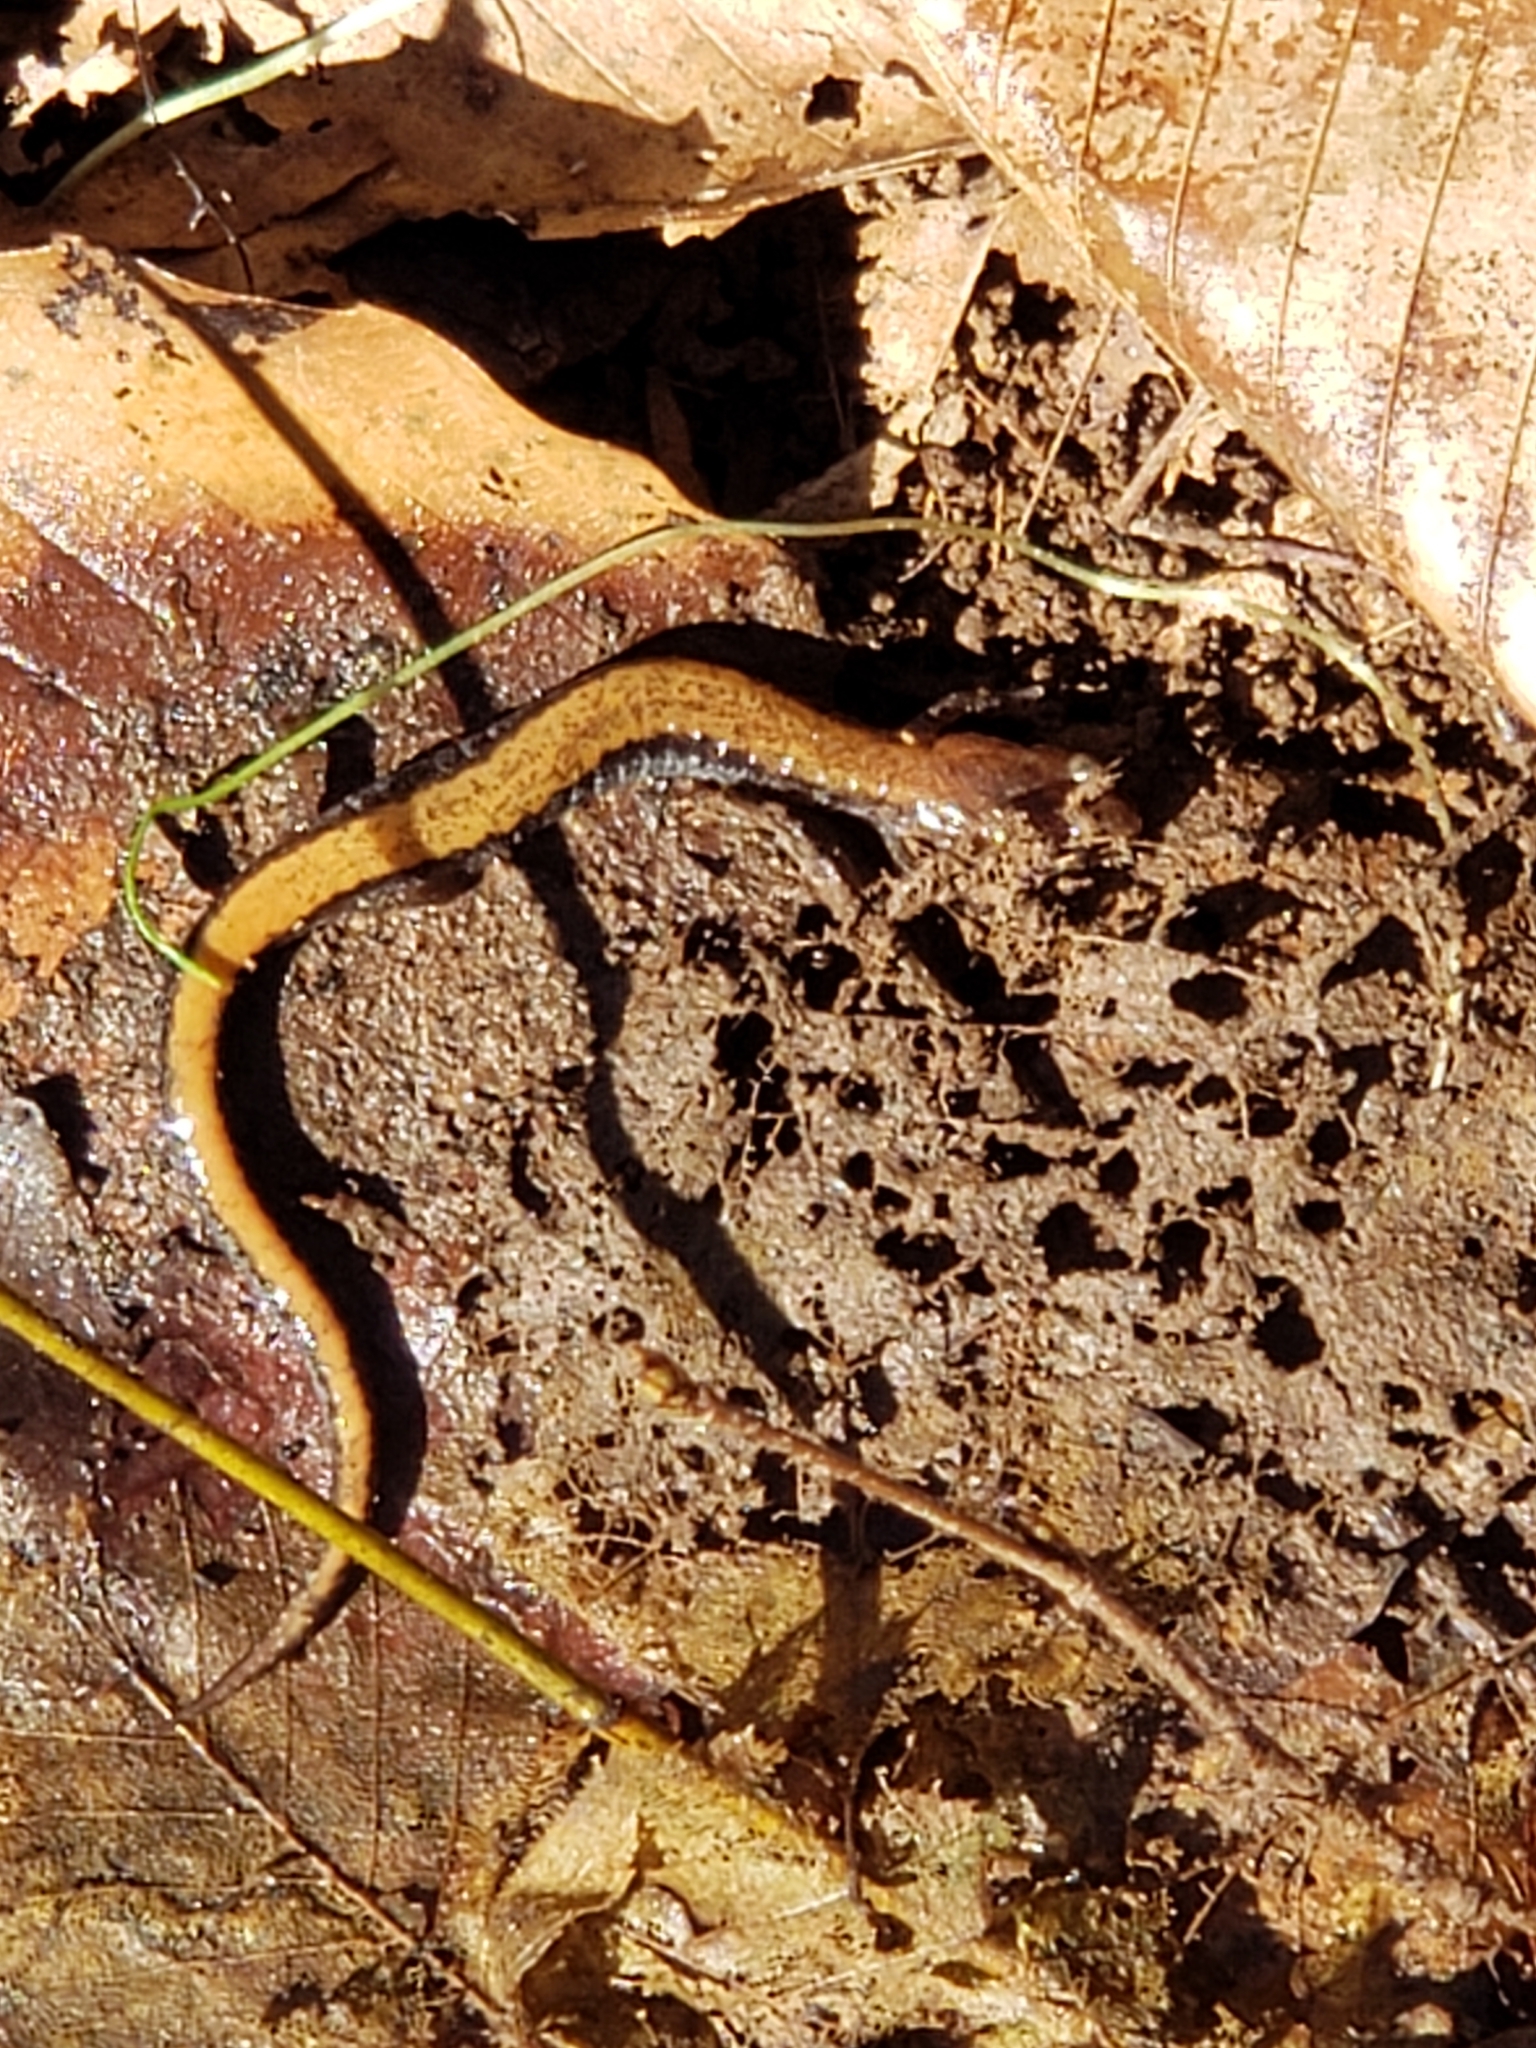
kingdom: Animalia
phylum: Chordata
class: Amphibia
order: Caudata
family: Plethodontidae
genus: Plethodon
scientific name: Plethodon cinereus
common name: Redback salamander
